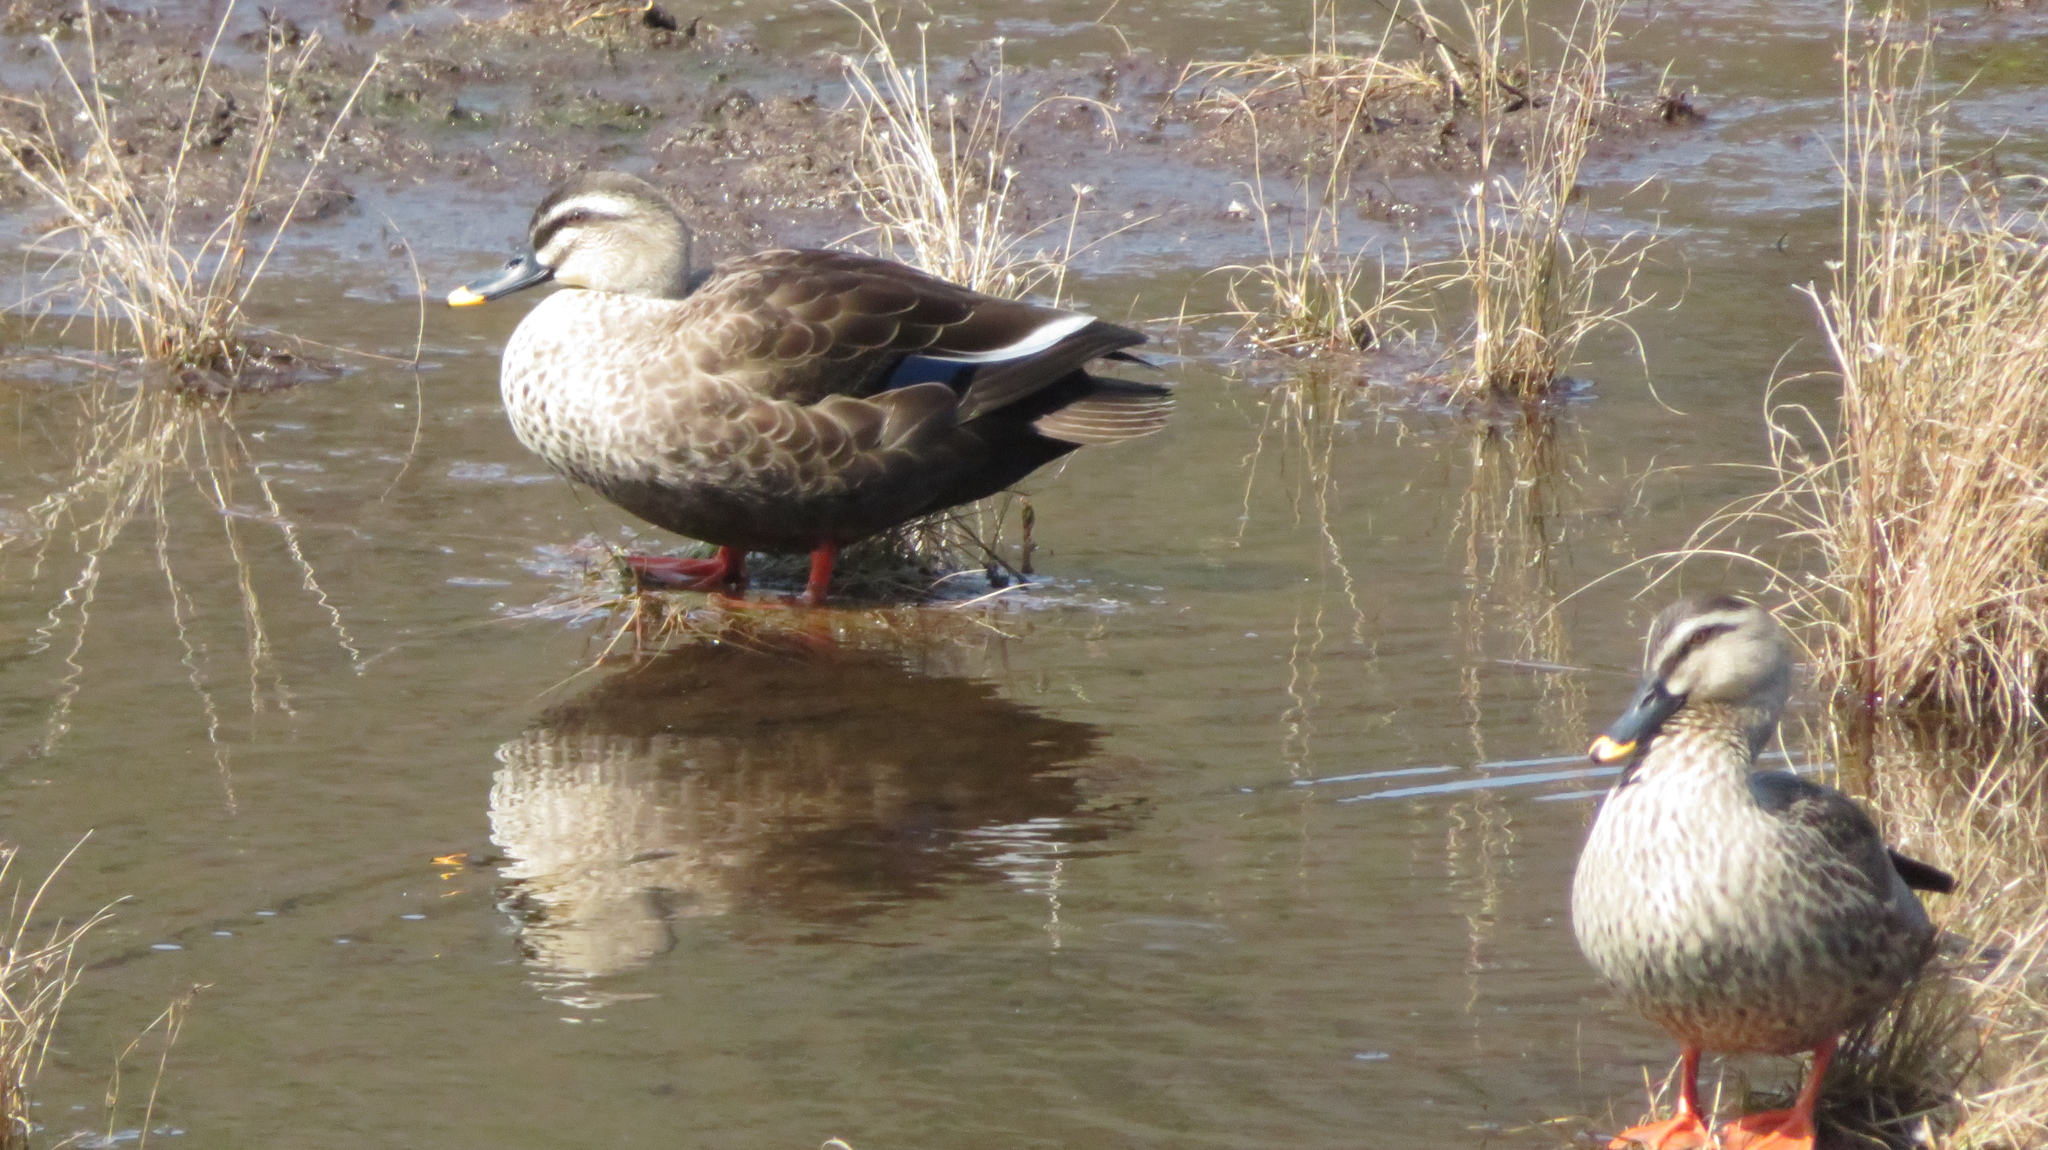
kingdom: Animalia
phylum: Chordata
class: Aves
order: Anseriformes
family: Anatidae
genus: Anas
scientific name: Anas zonorhyncha
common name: Eastern spot-billed duck
